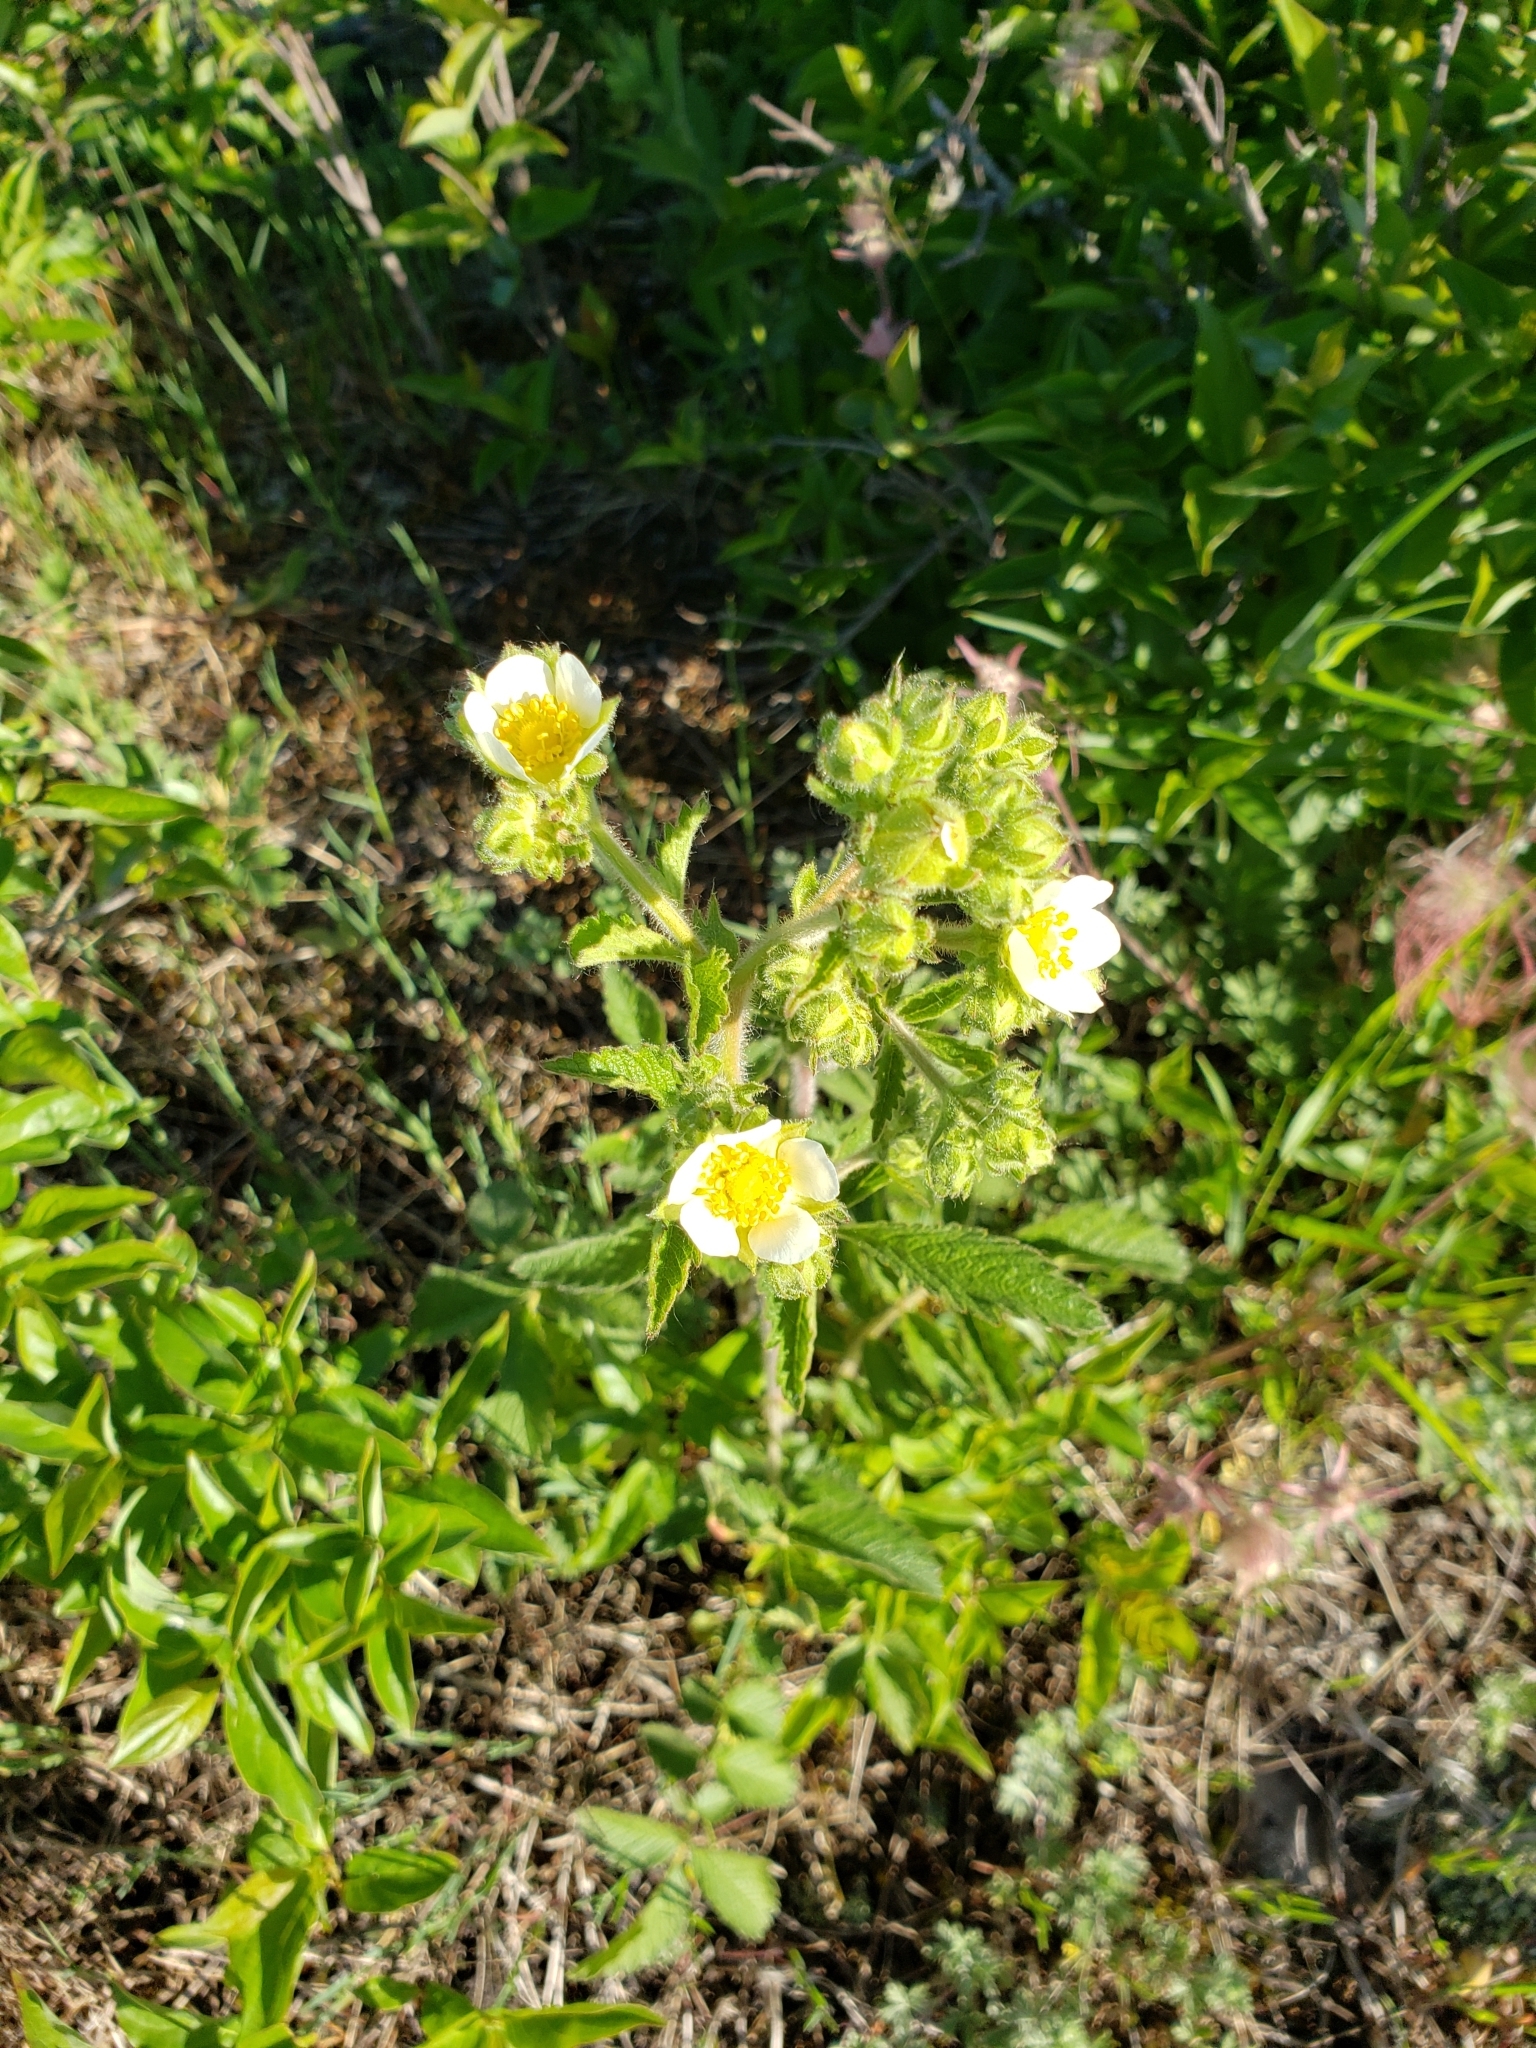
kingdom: Plantae
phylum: Tracheophyta
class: Magnoliopsida
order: Rosales
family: Rosaceae
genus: Drymocallis
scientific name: Drymocallis arguta
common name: Tall cinquefoil
